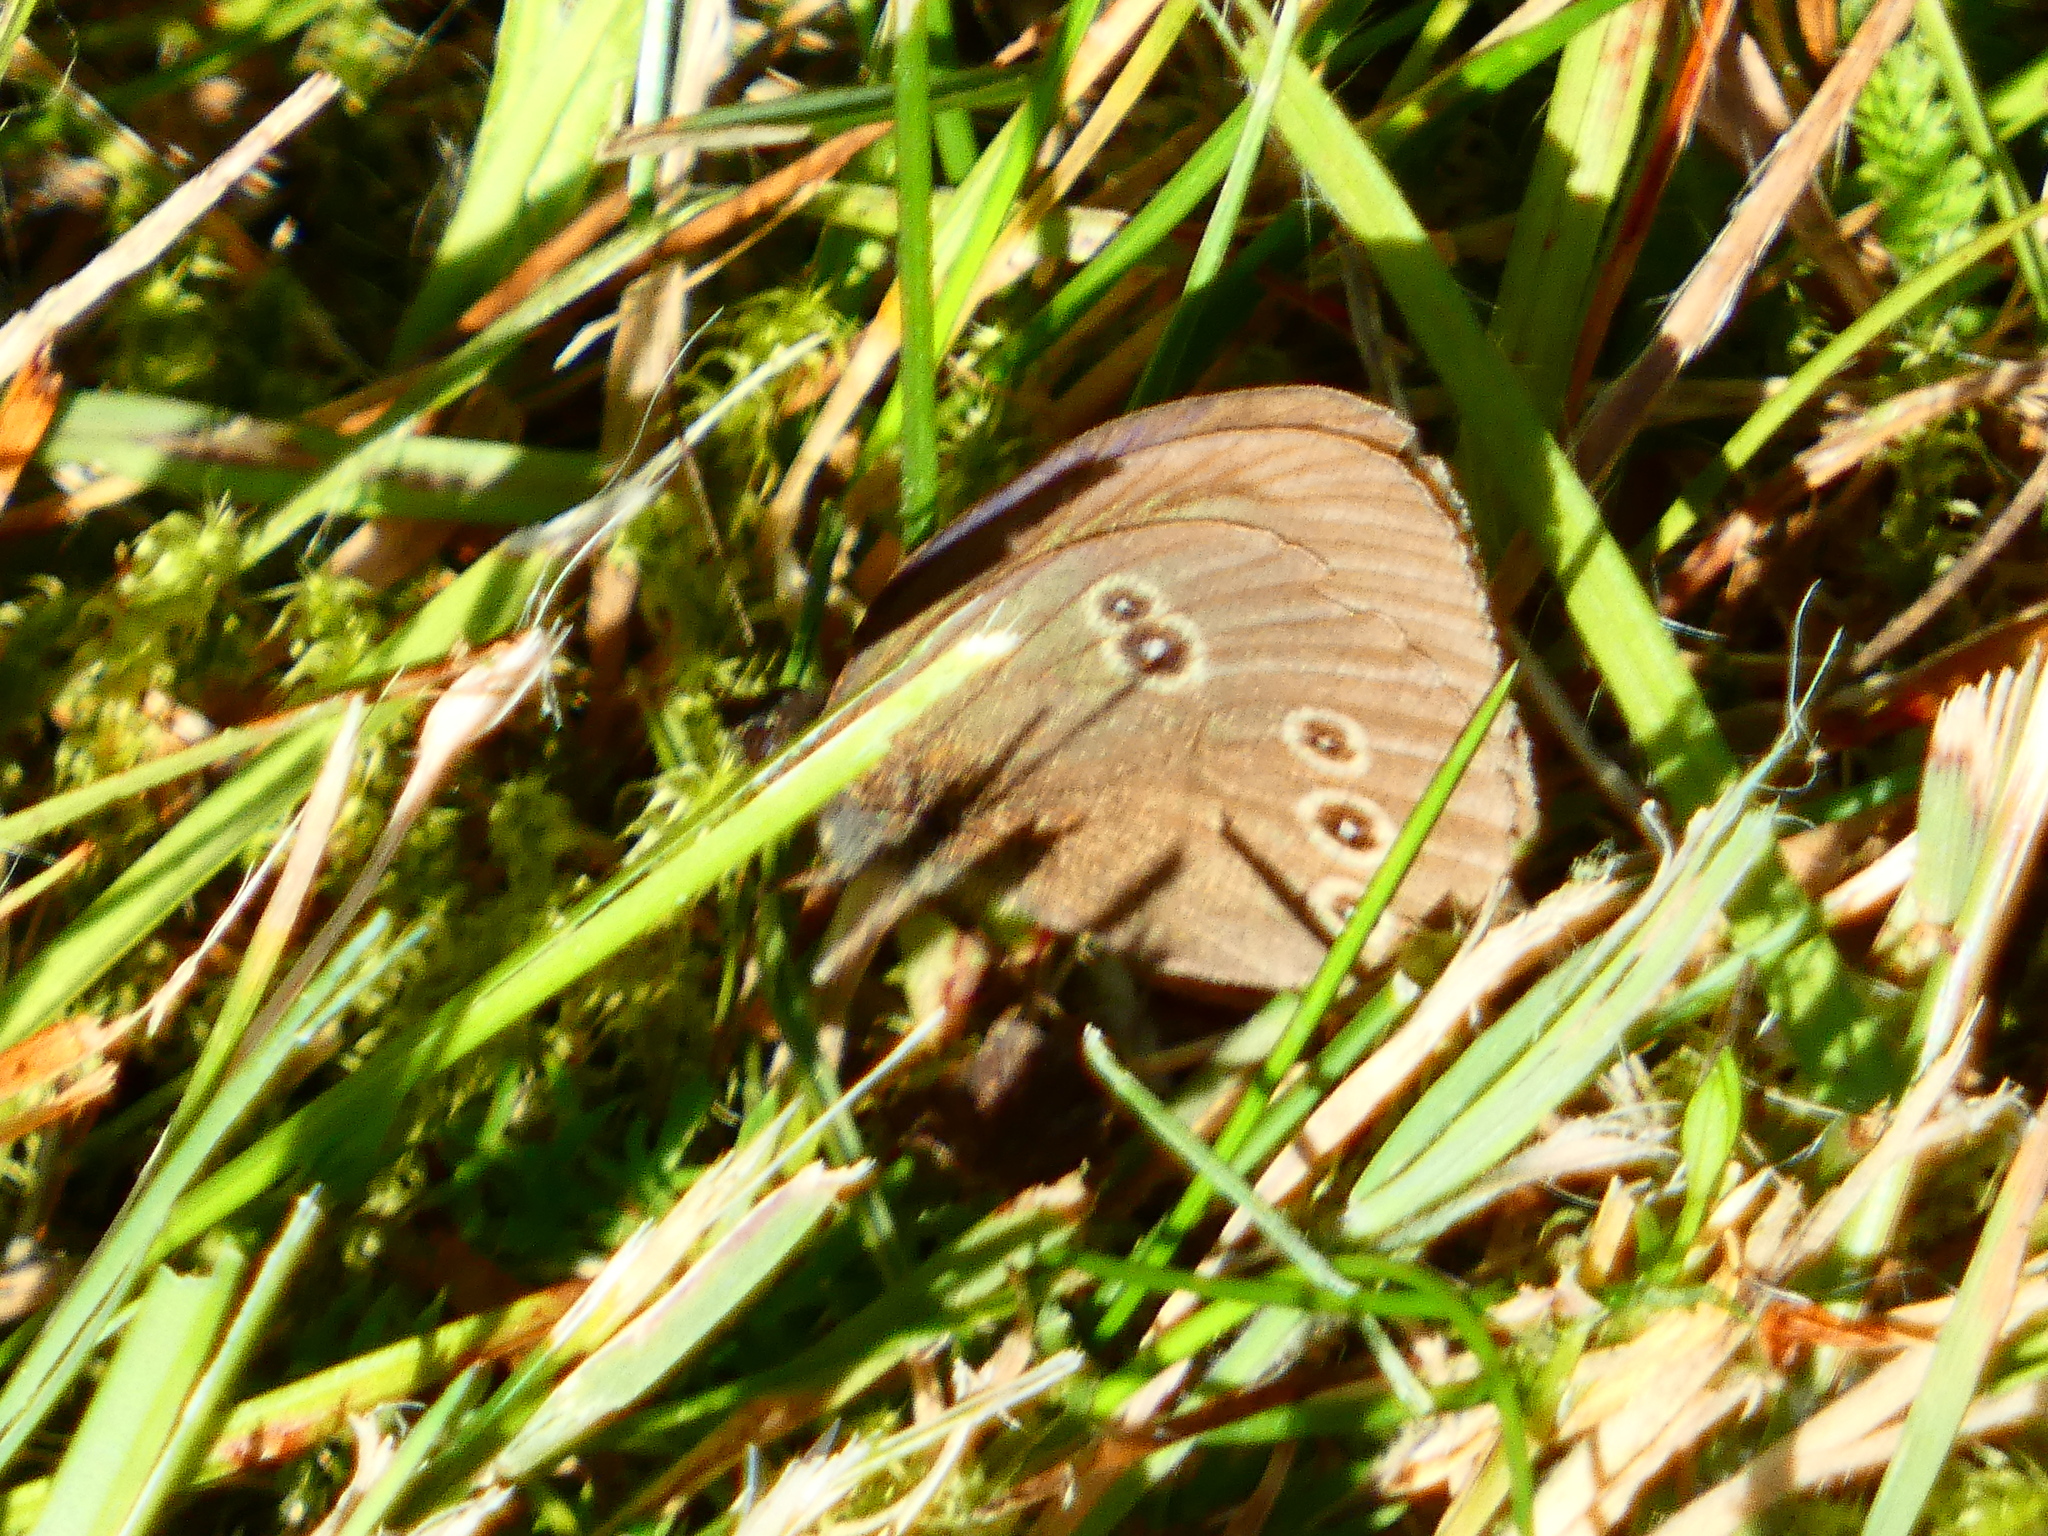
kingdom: Animalia
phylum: Arthropoda
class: Insecta
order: Lepidoptera
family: Nymphalidae
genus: Aphantopus
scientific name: Aphantopus hyperantus
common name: Ringlet
